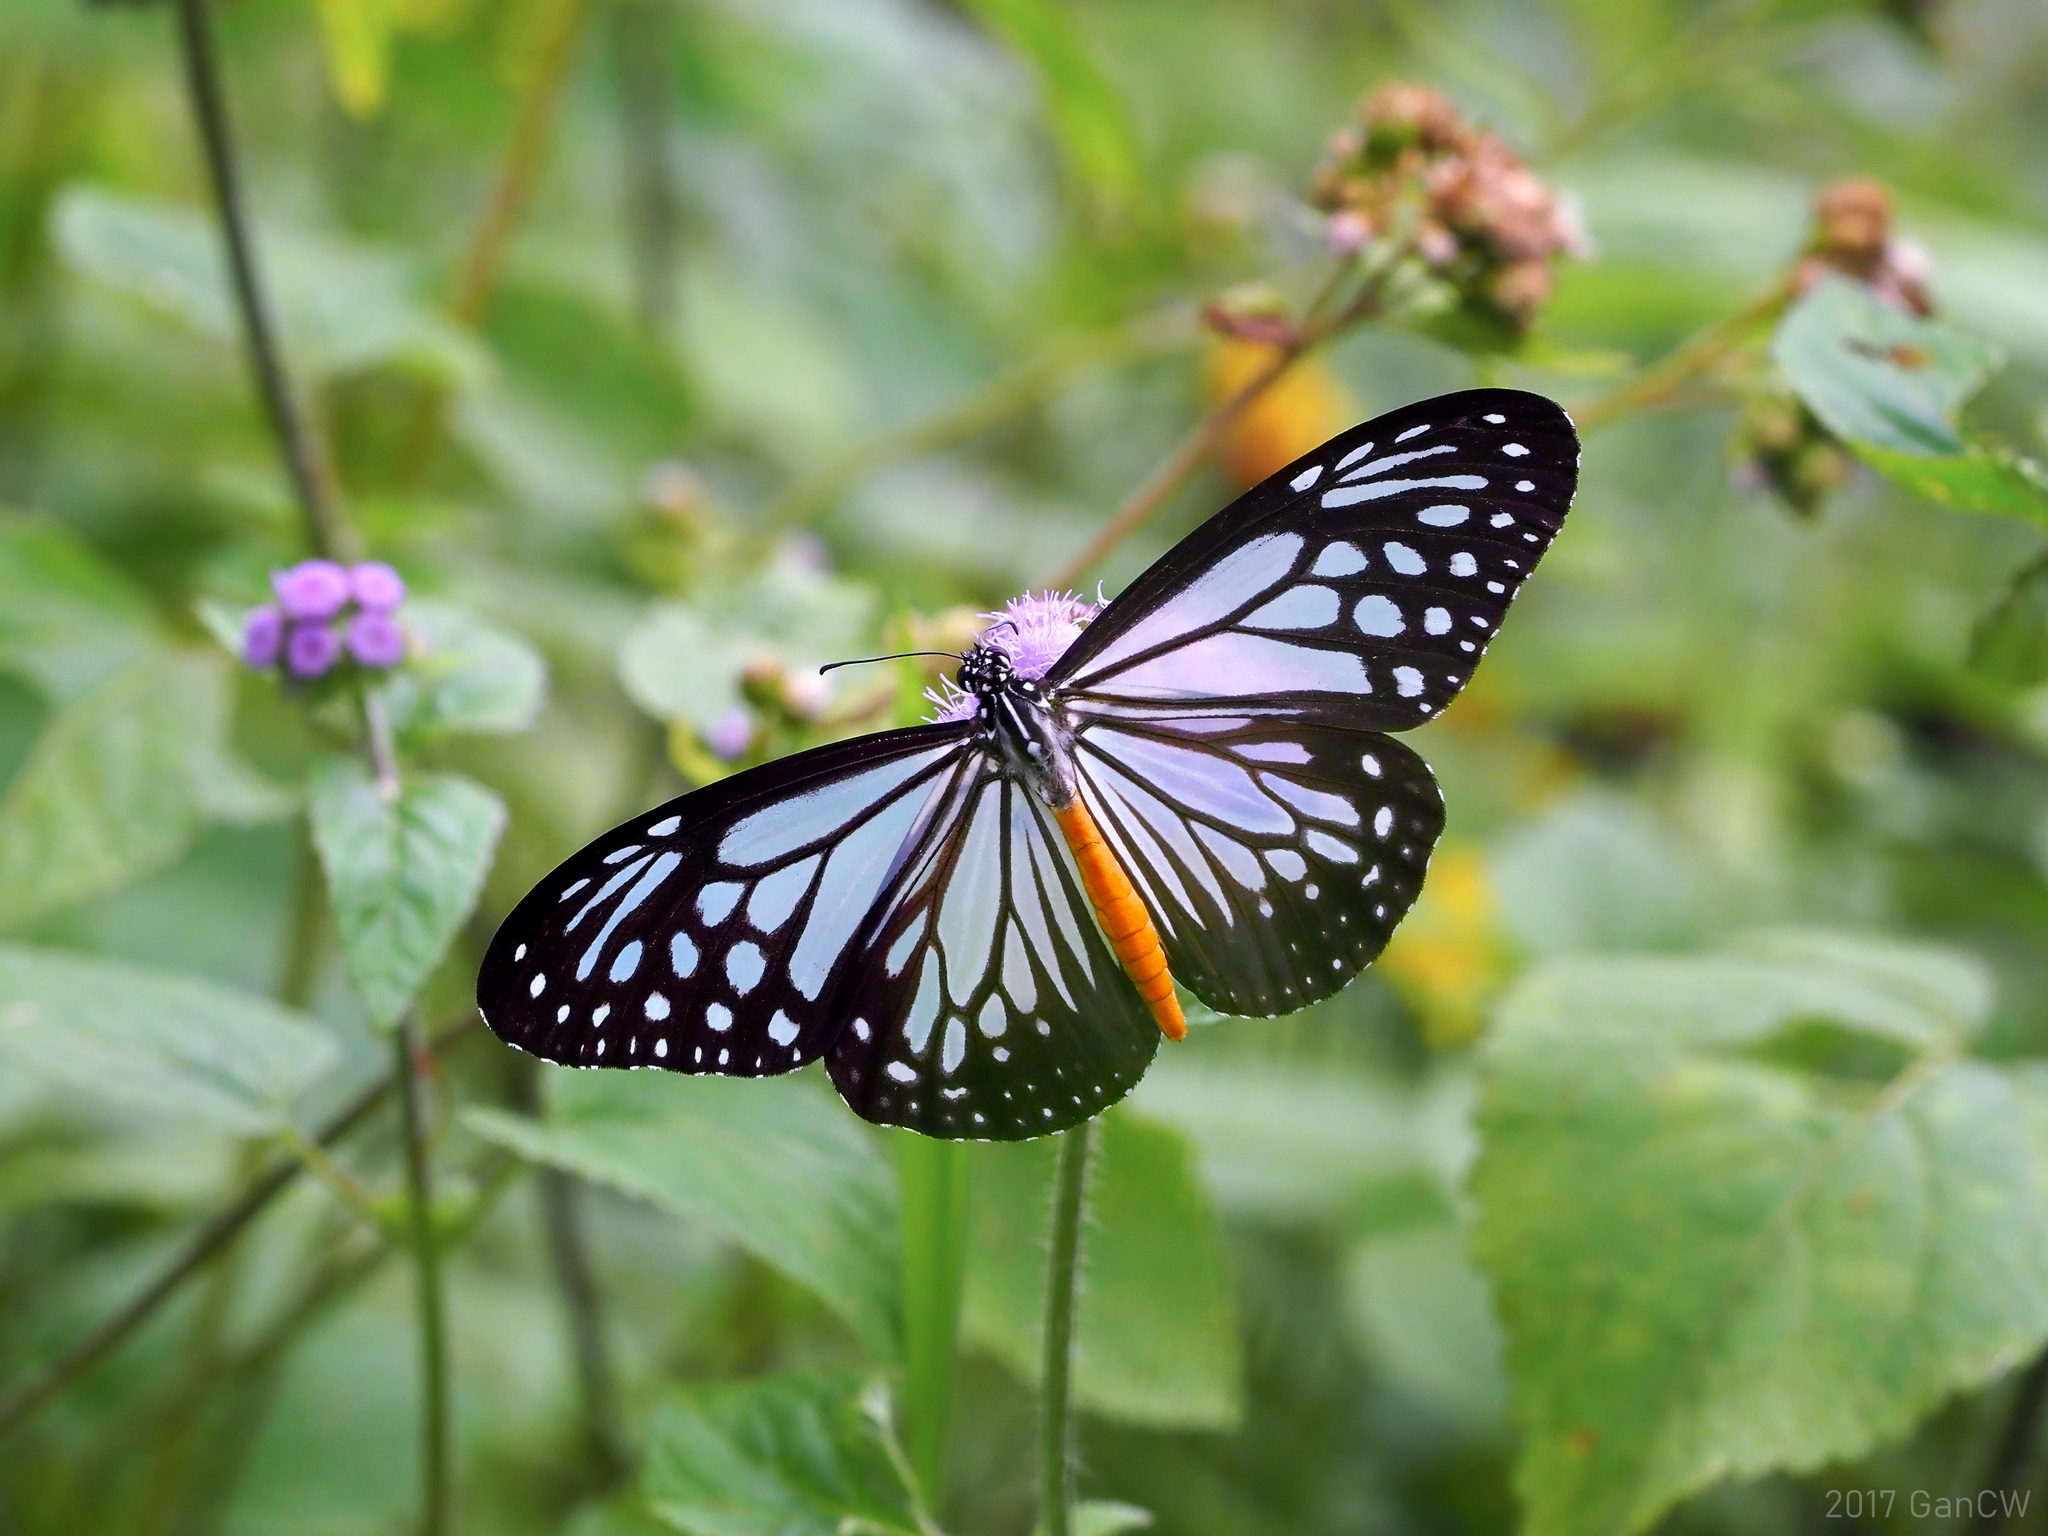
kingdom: Animalia
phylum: Arthropoda
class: Insecta
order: Lepidoptera
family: Nymphalidae
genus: Parantica
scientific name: Parantica melaneus
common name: Chocolate tiger
